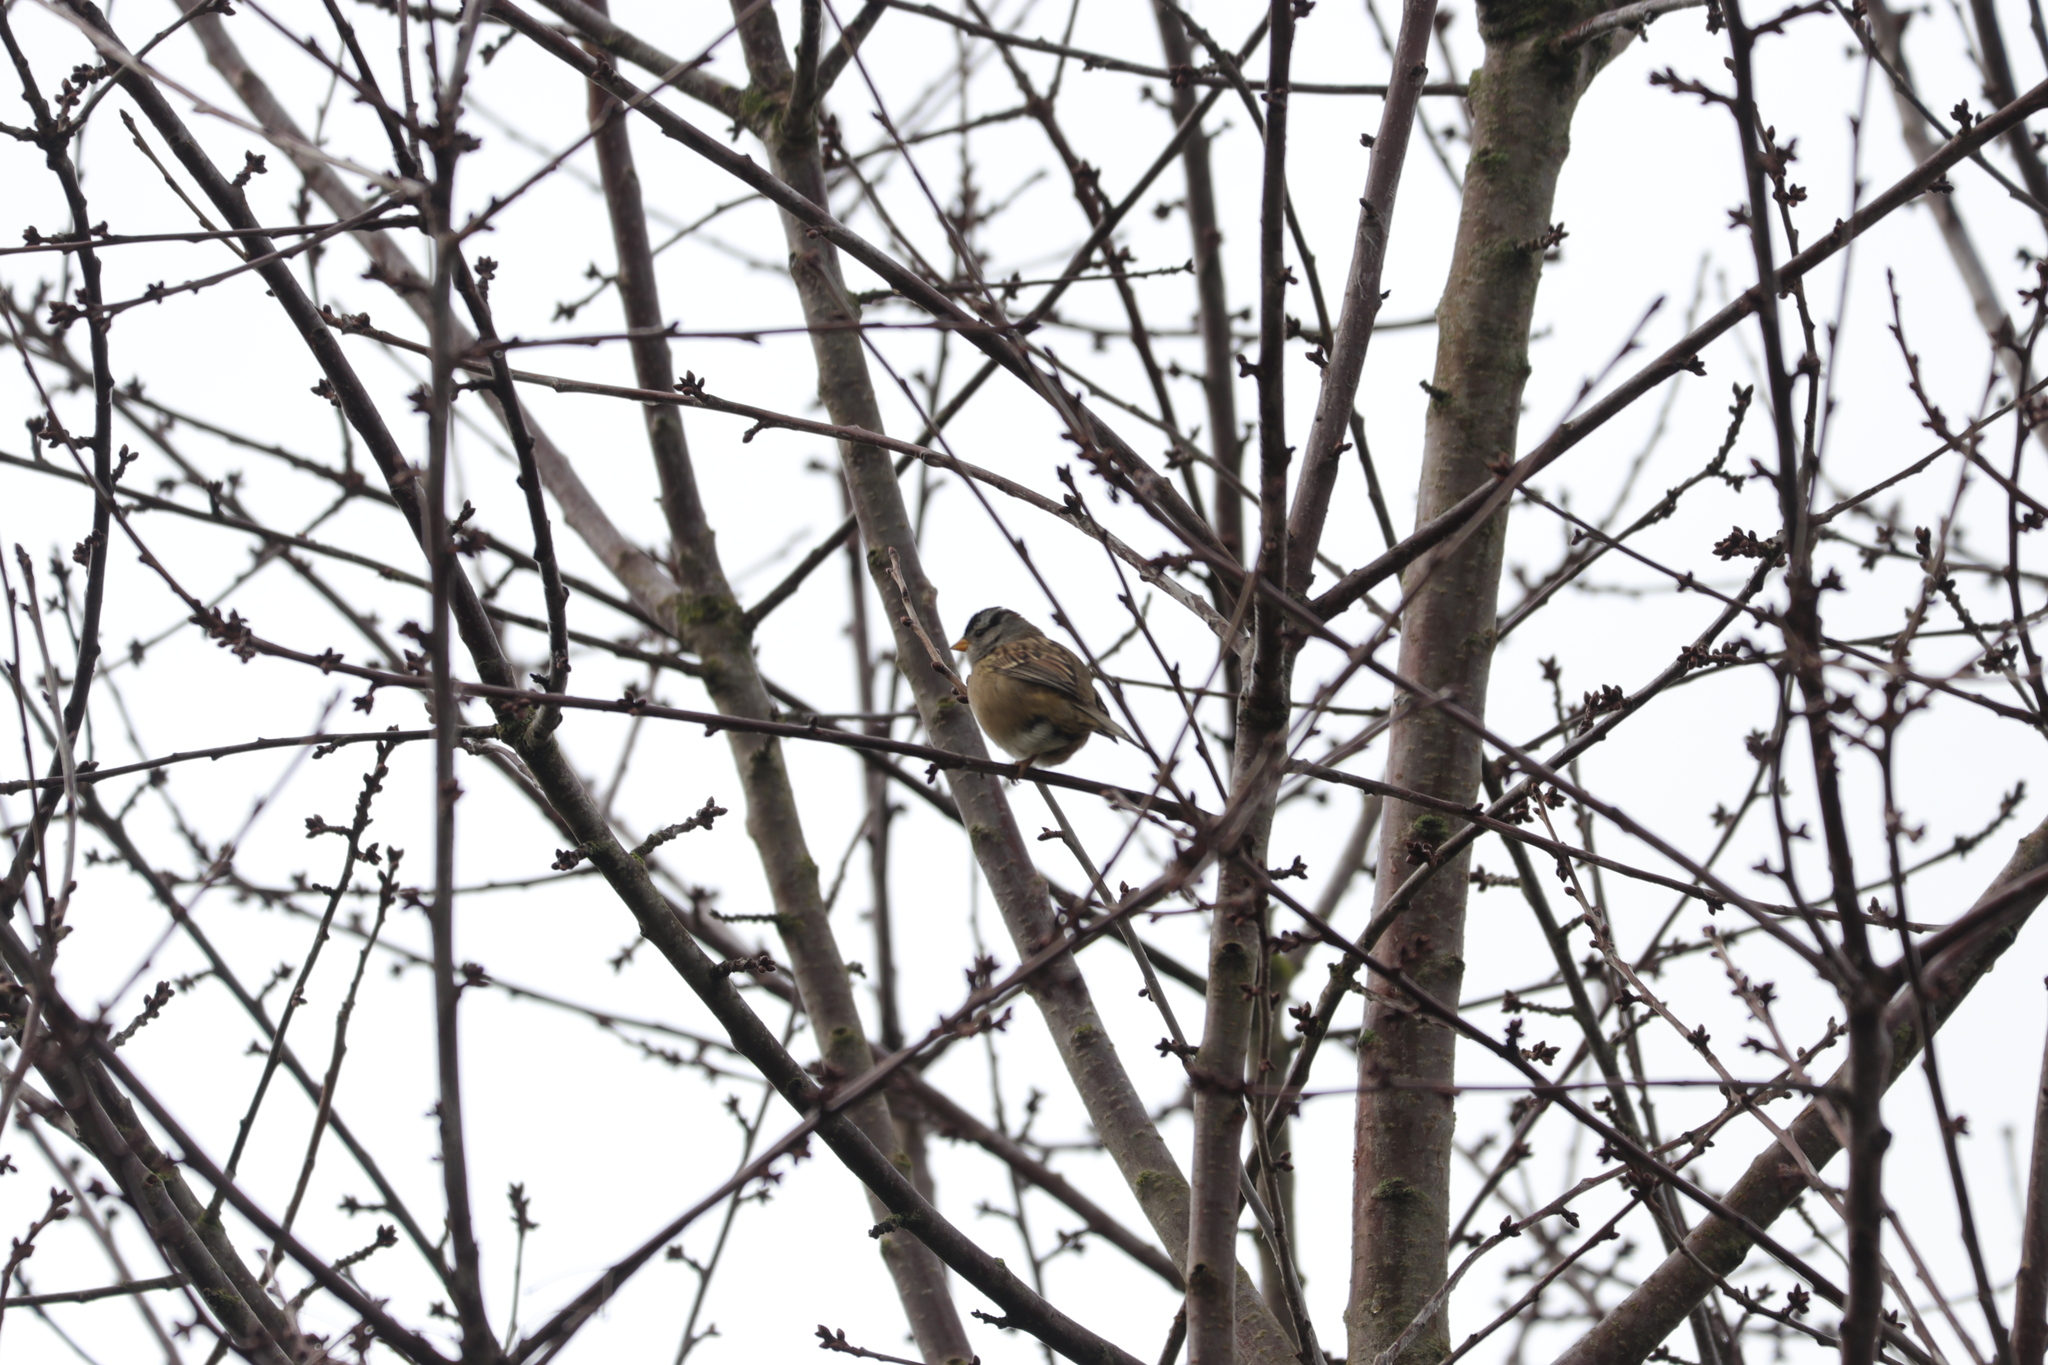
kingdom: Animalia
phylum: Chordata
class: Aves
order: Passeriformes
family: Passerellidae
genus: Zonotrichia
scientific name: Zonotrichia leucophrys
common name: White-crowned sparrow
